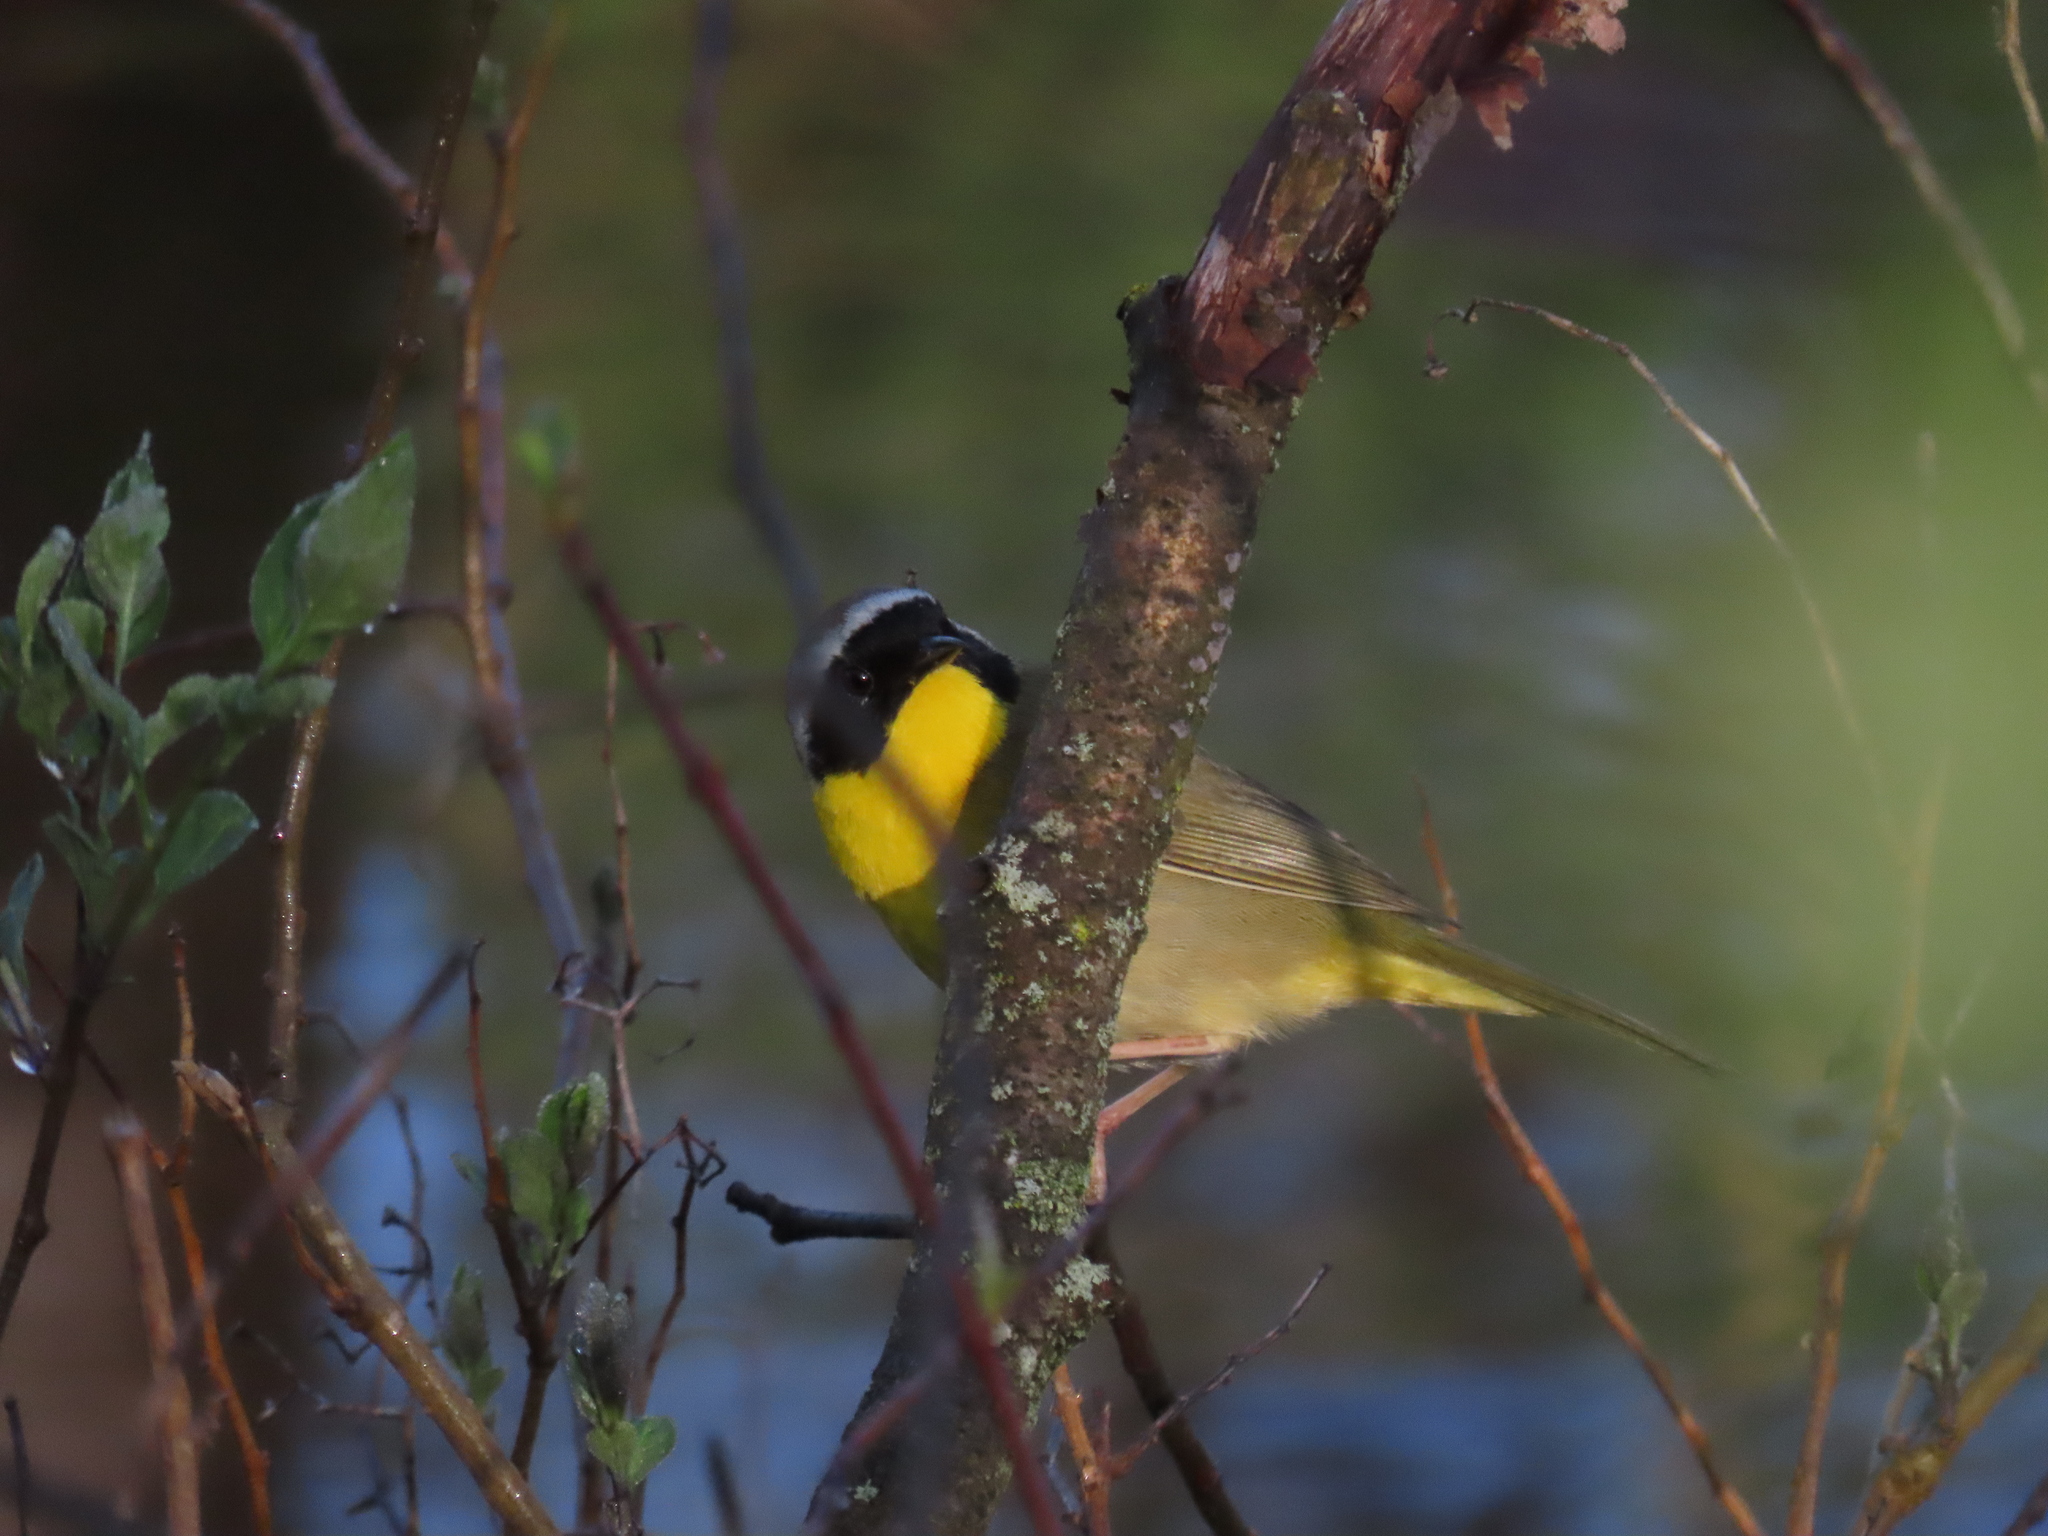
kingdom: Animalia
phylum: Chordata
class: Aves
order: Passeriformes
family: Parulidae
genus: Geothlypis
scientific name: Geothlypis trichas
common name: Common yellowthroat
